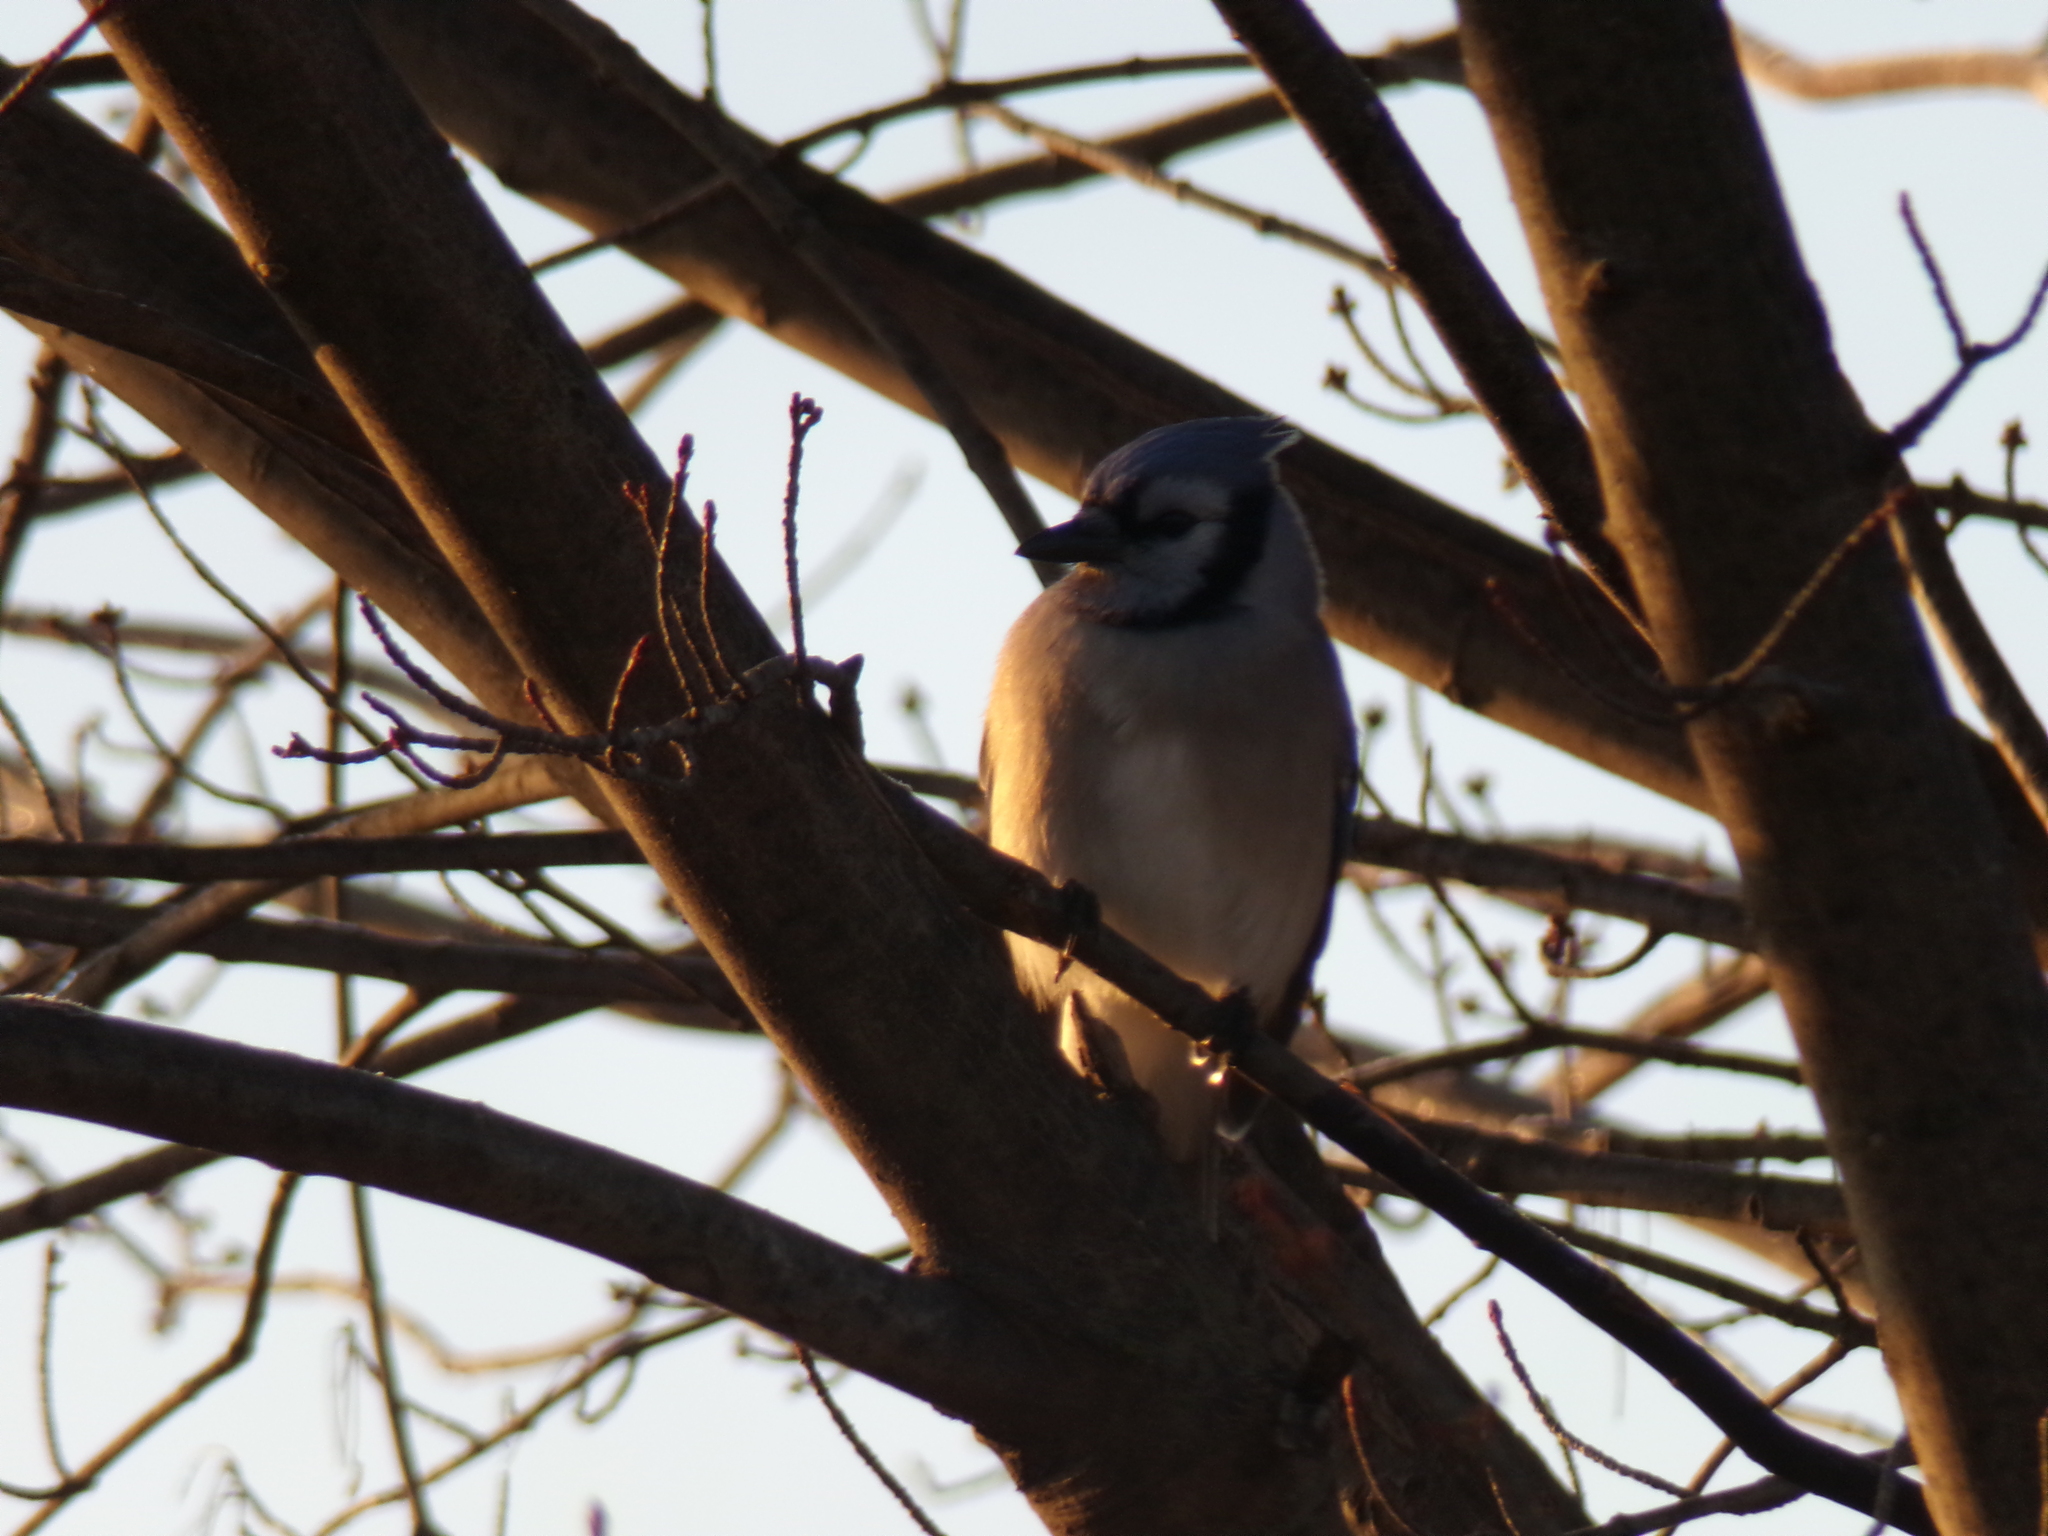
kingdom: Animalia
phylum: Chordata
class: Aves
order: Passeriformes
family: Corvidae
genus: Cyanocitta
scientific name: Cyanocitta cristata
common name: Blue jay
